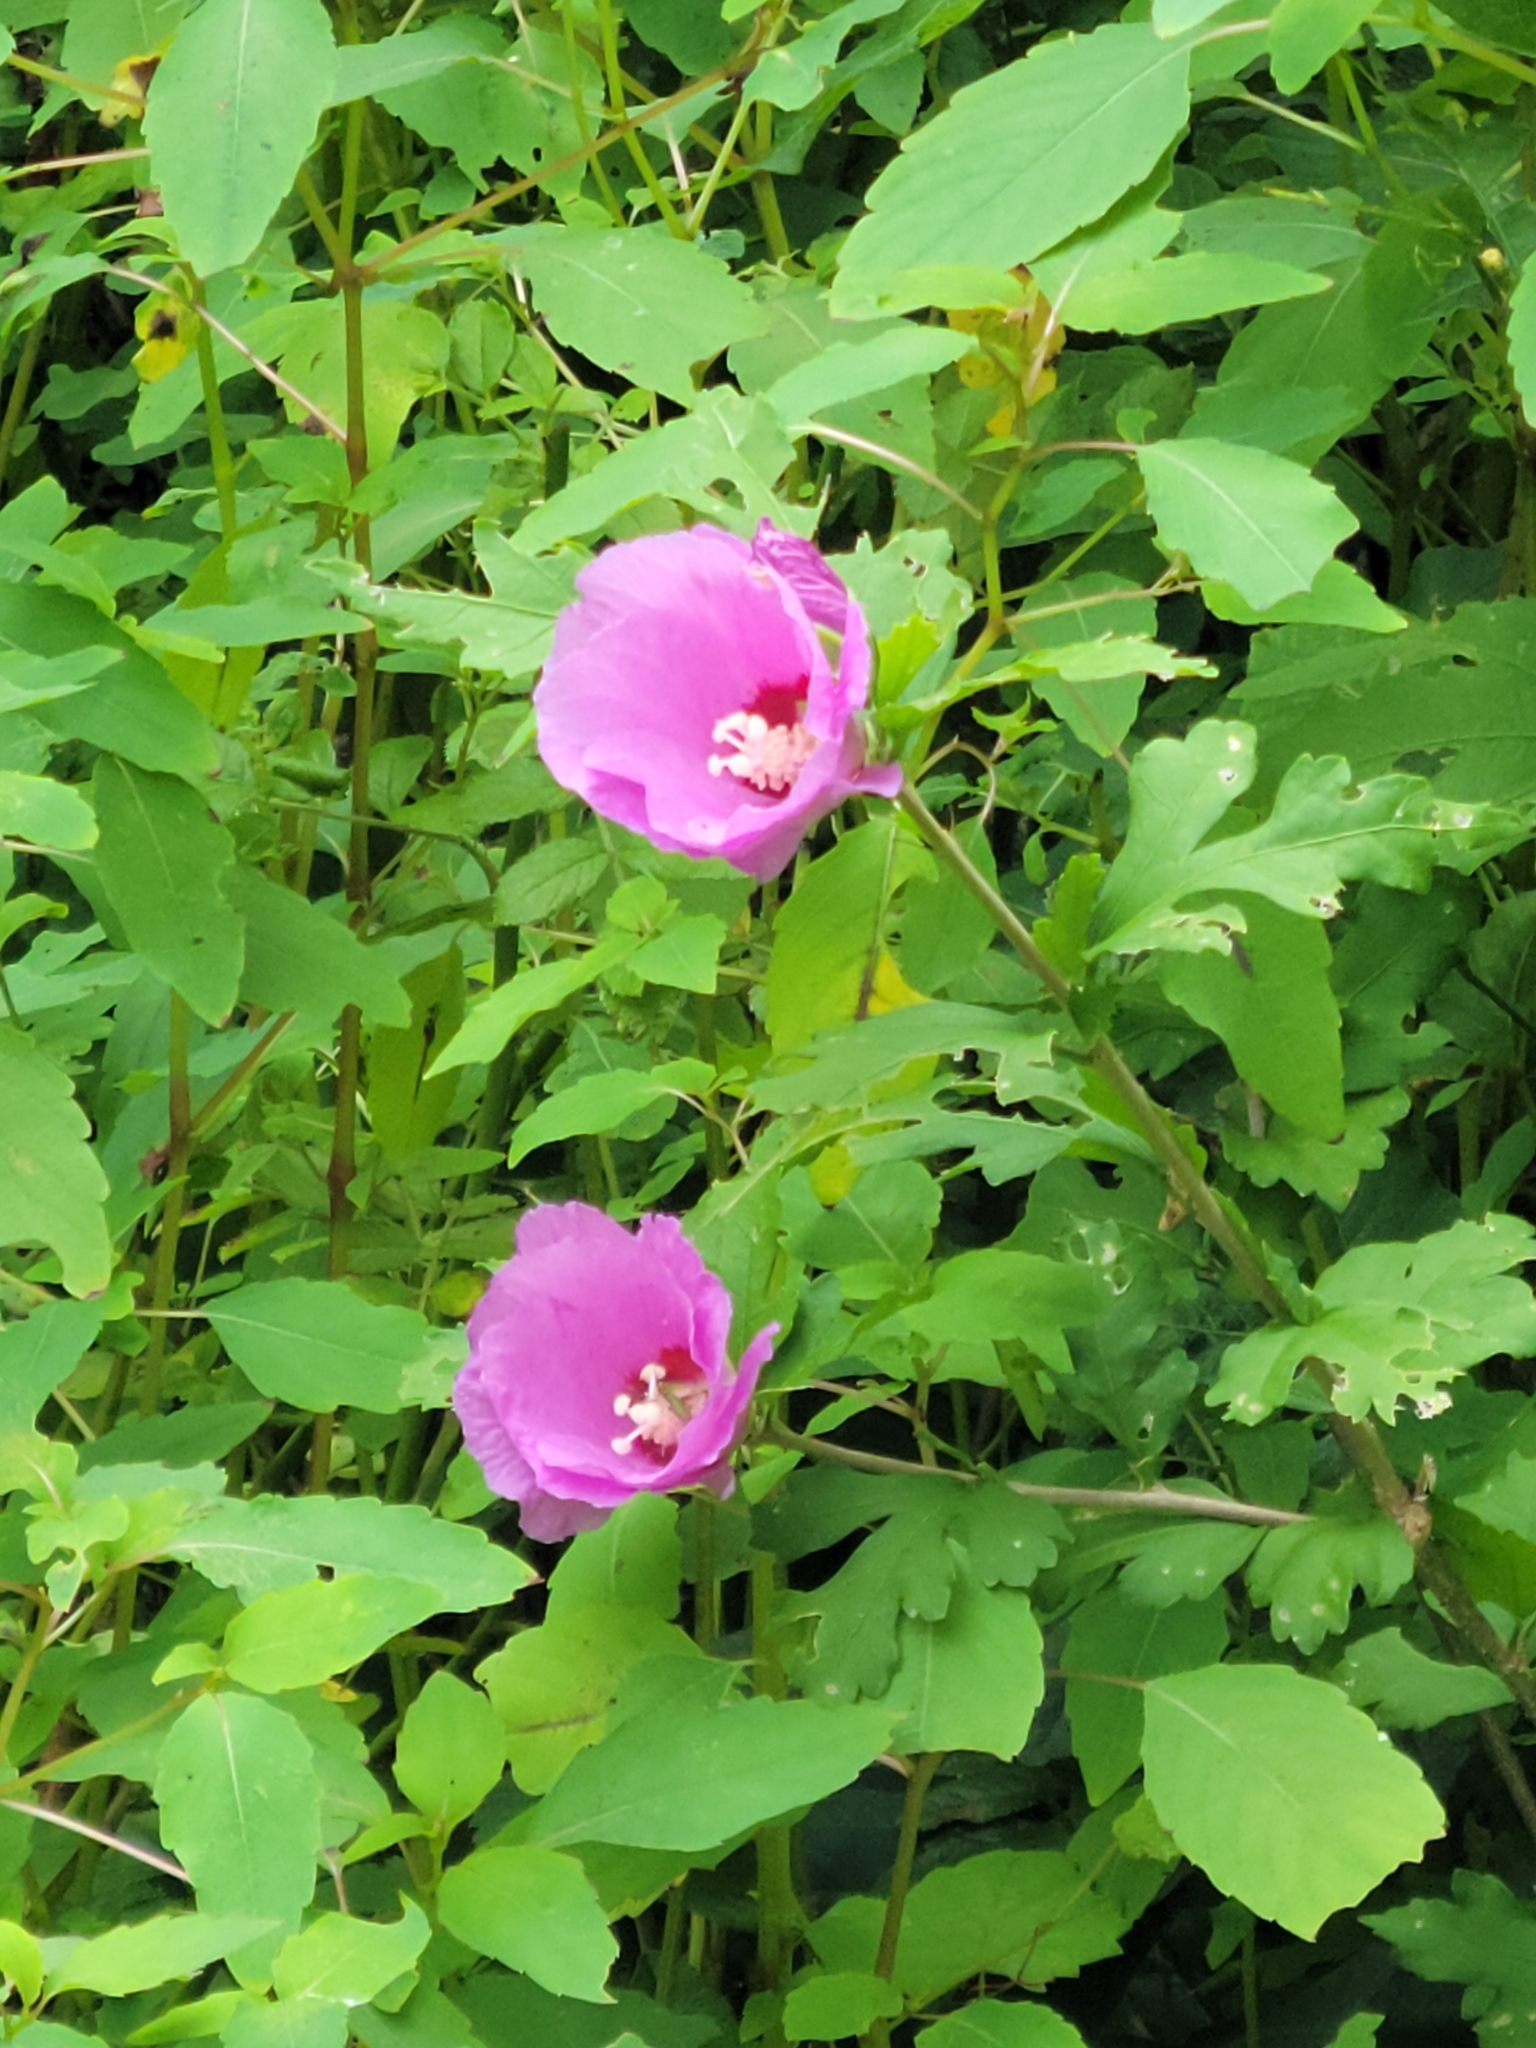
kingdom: Plantae
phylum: Tracheophyta
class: Magnoliopsida
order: Malvales
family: Malvaceae
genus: Hibiscus
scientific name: Hibiscus syriacus
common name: Syrian ketmia
